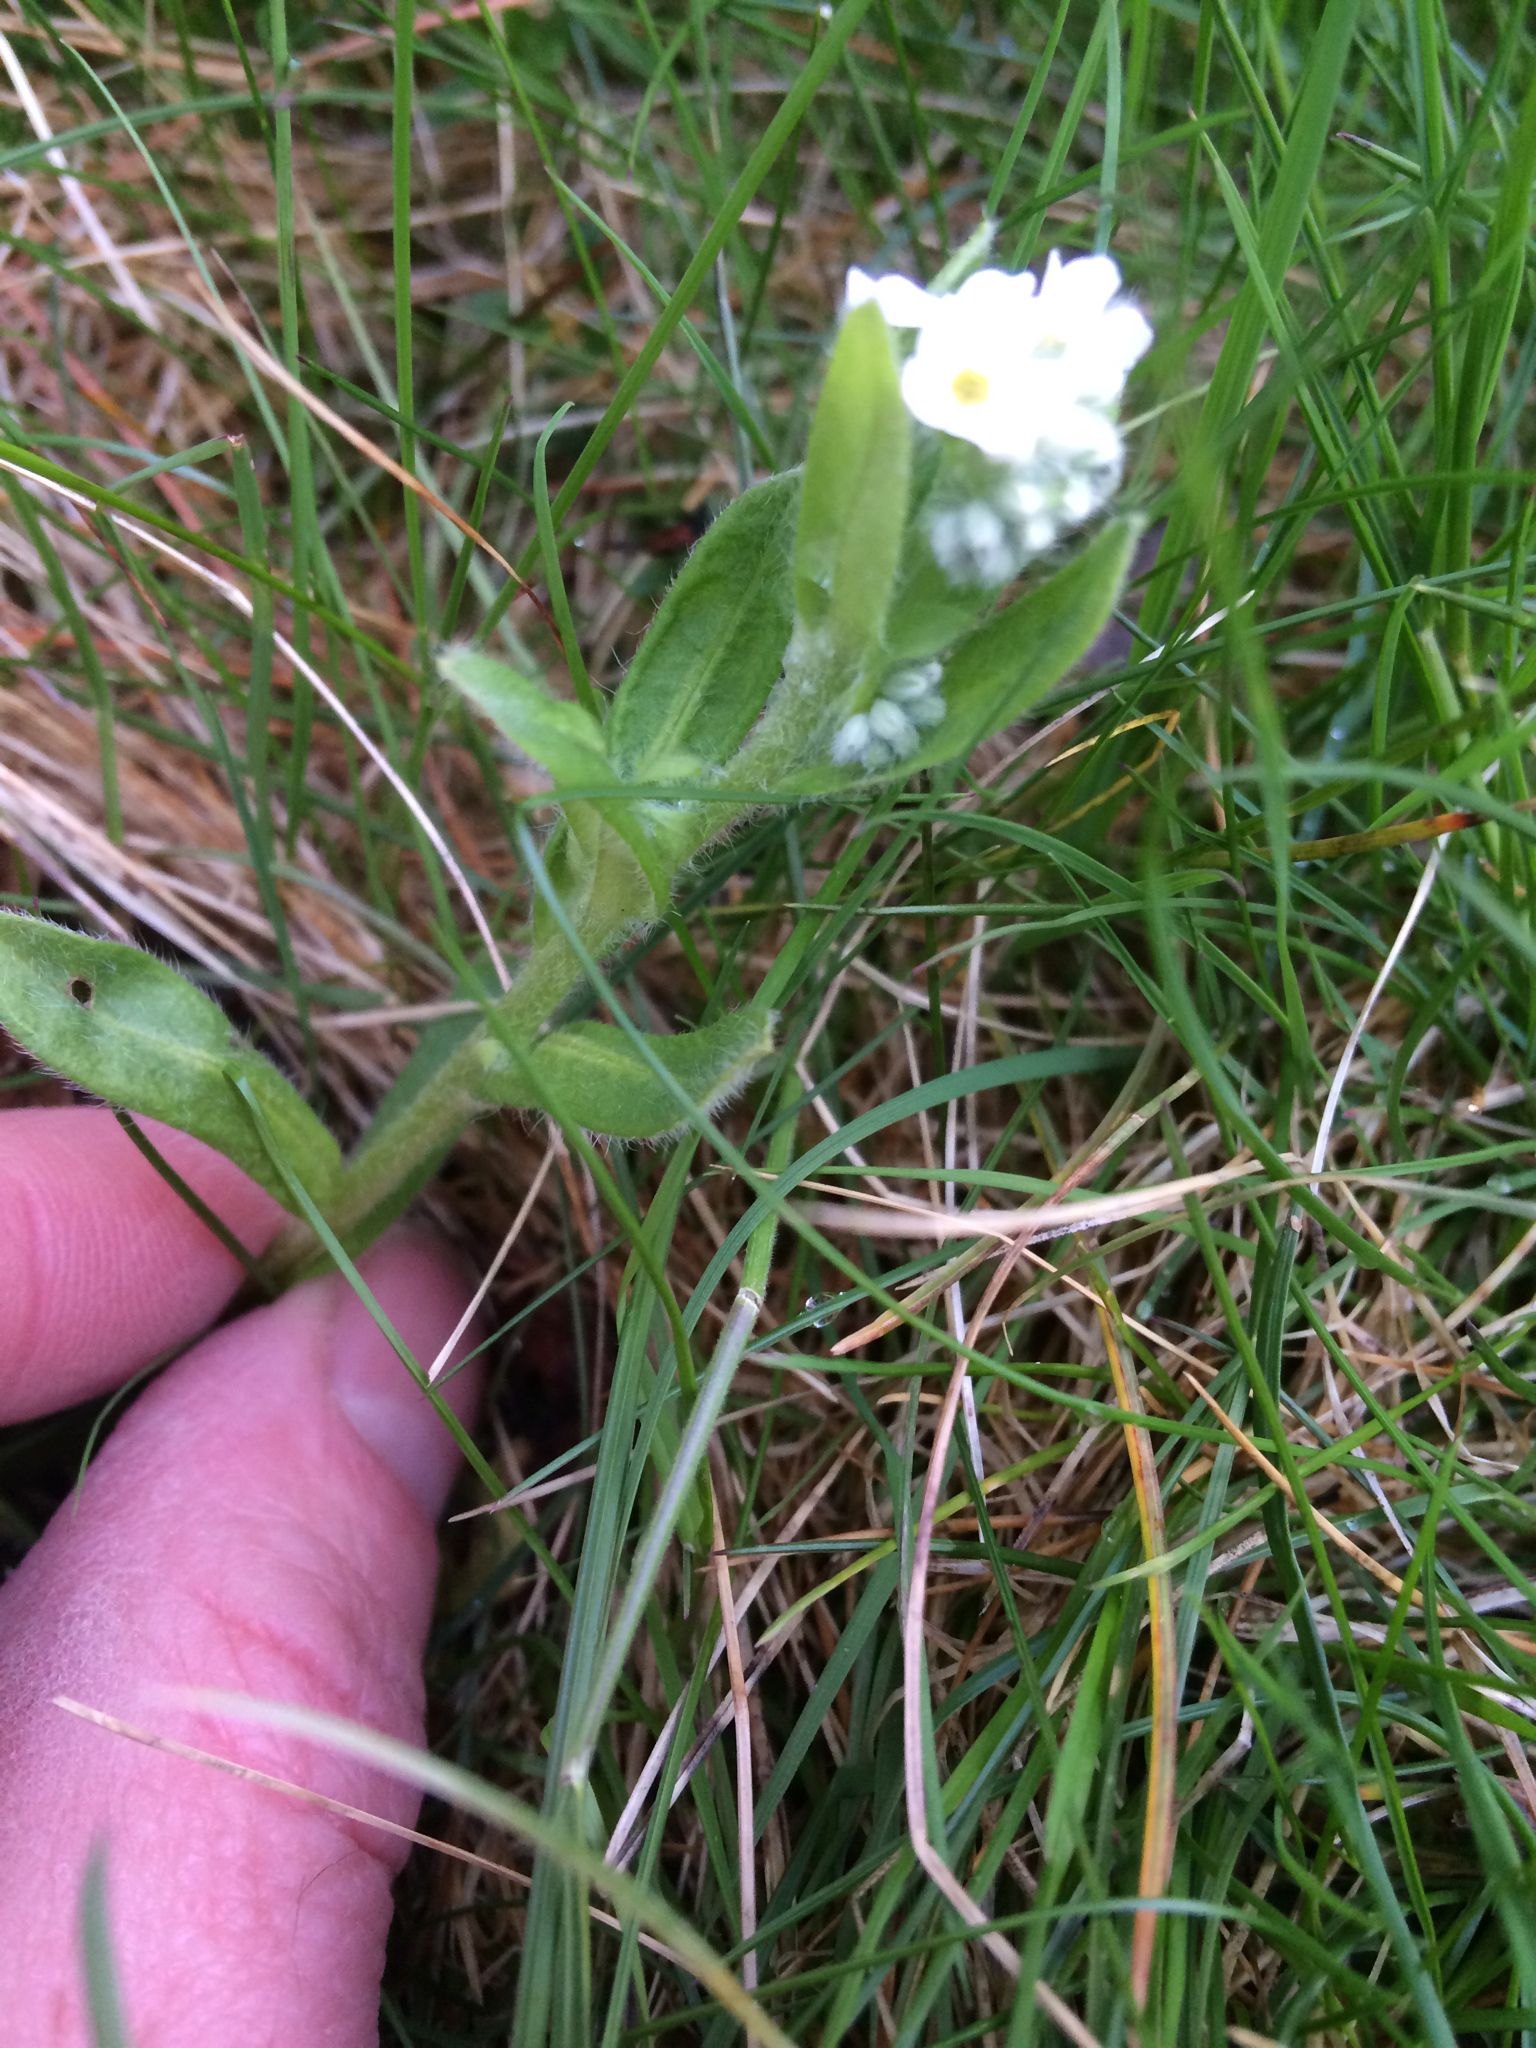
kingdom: Plantae
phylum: Tracheophyta
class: Magnoliopsida
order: Boraginales
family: Boraginaceae
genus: Myosotis
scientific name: Myosotis sylvatica
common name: Wood forget-me-not
